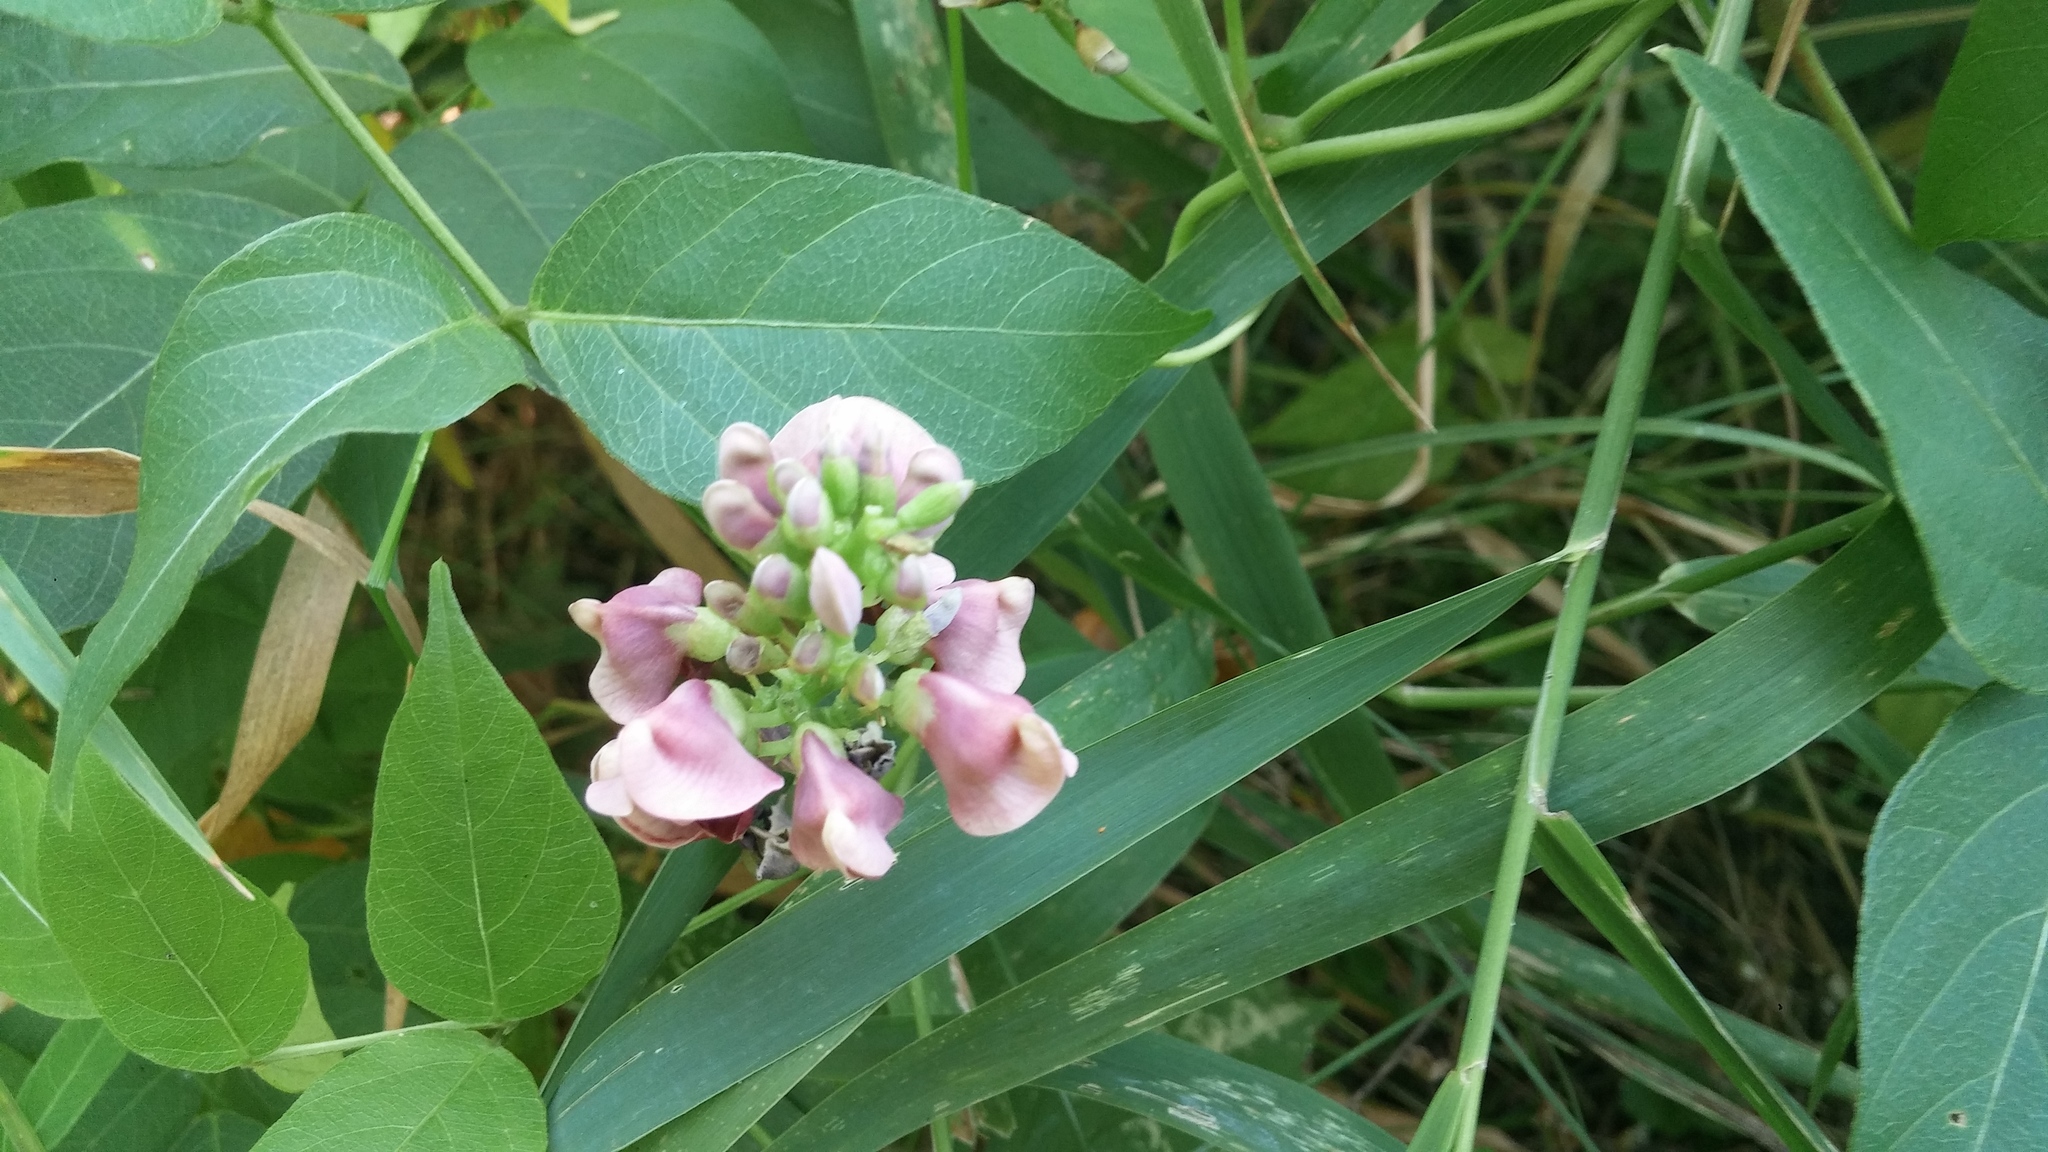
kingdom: Plantae
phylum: Tracheophyta
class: Magnoliopsida
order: Fabales
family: Fabaceae
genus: Apios
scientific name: Apios americana
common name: American potato-bean
